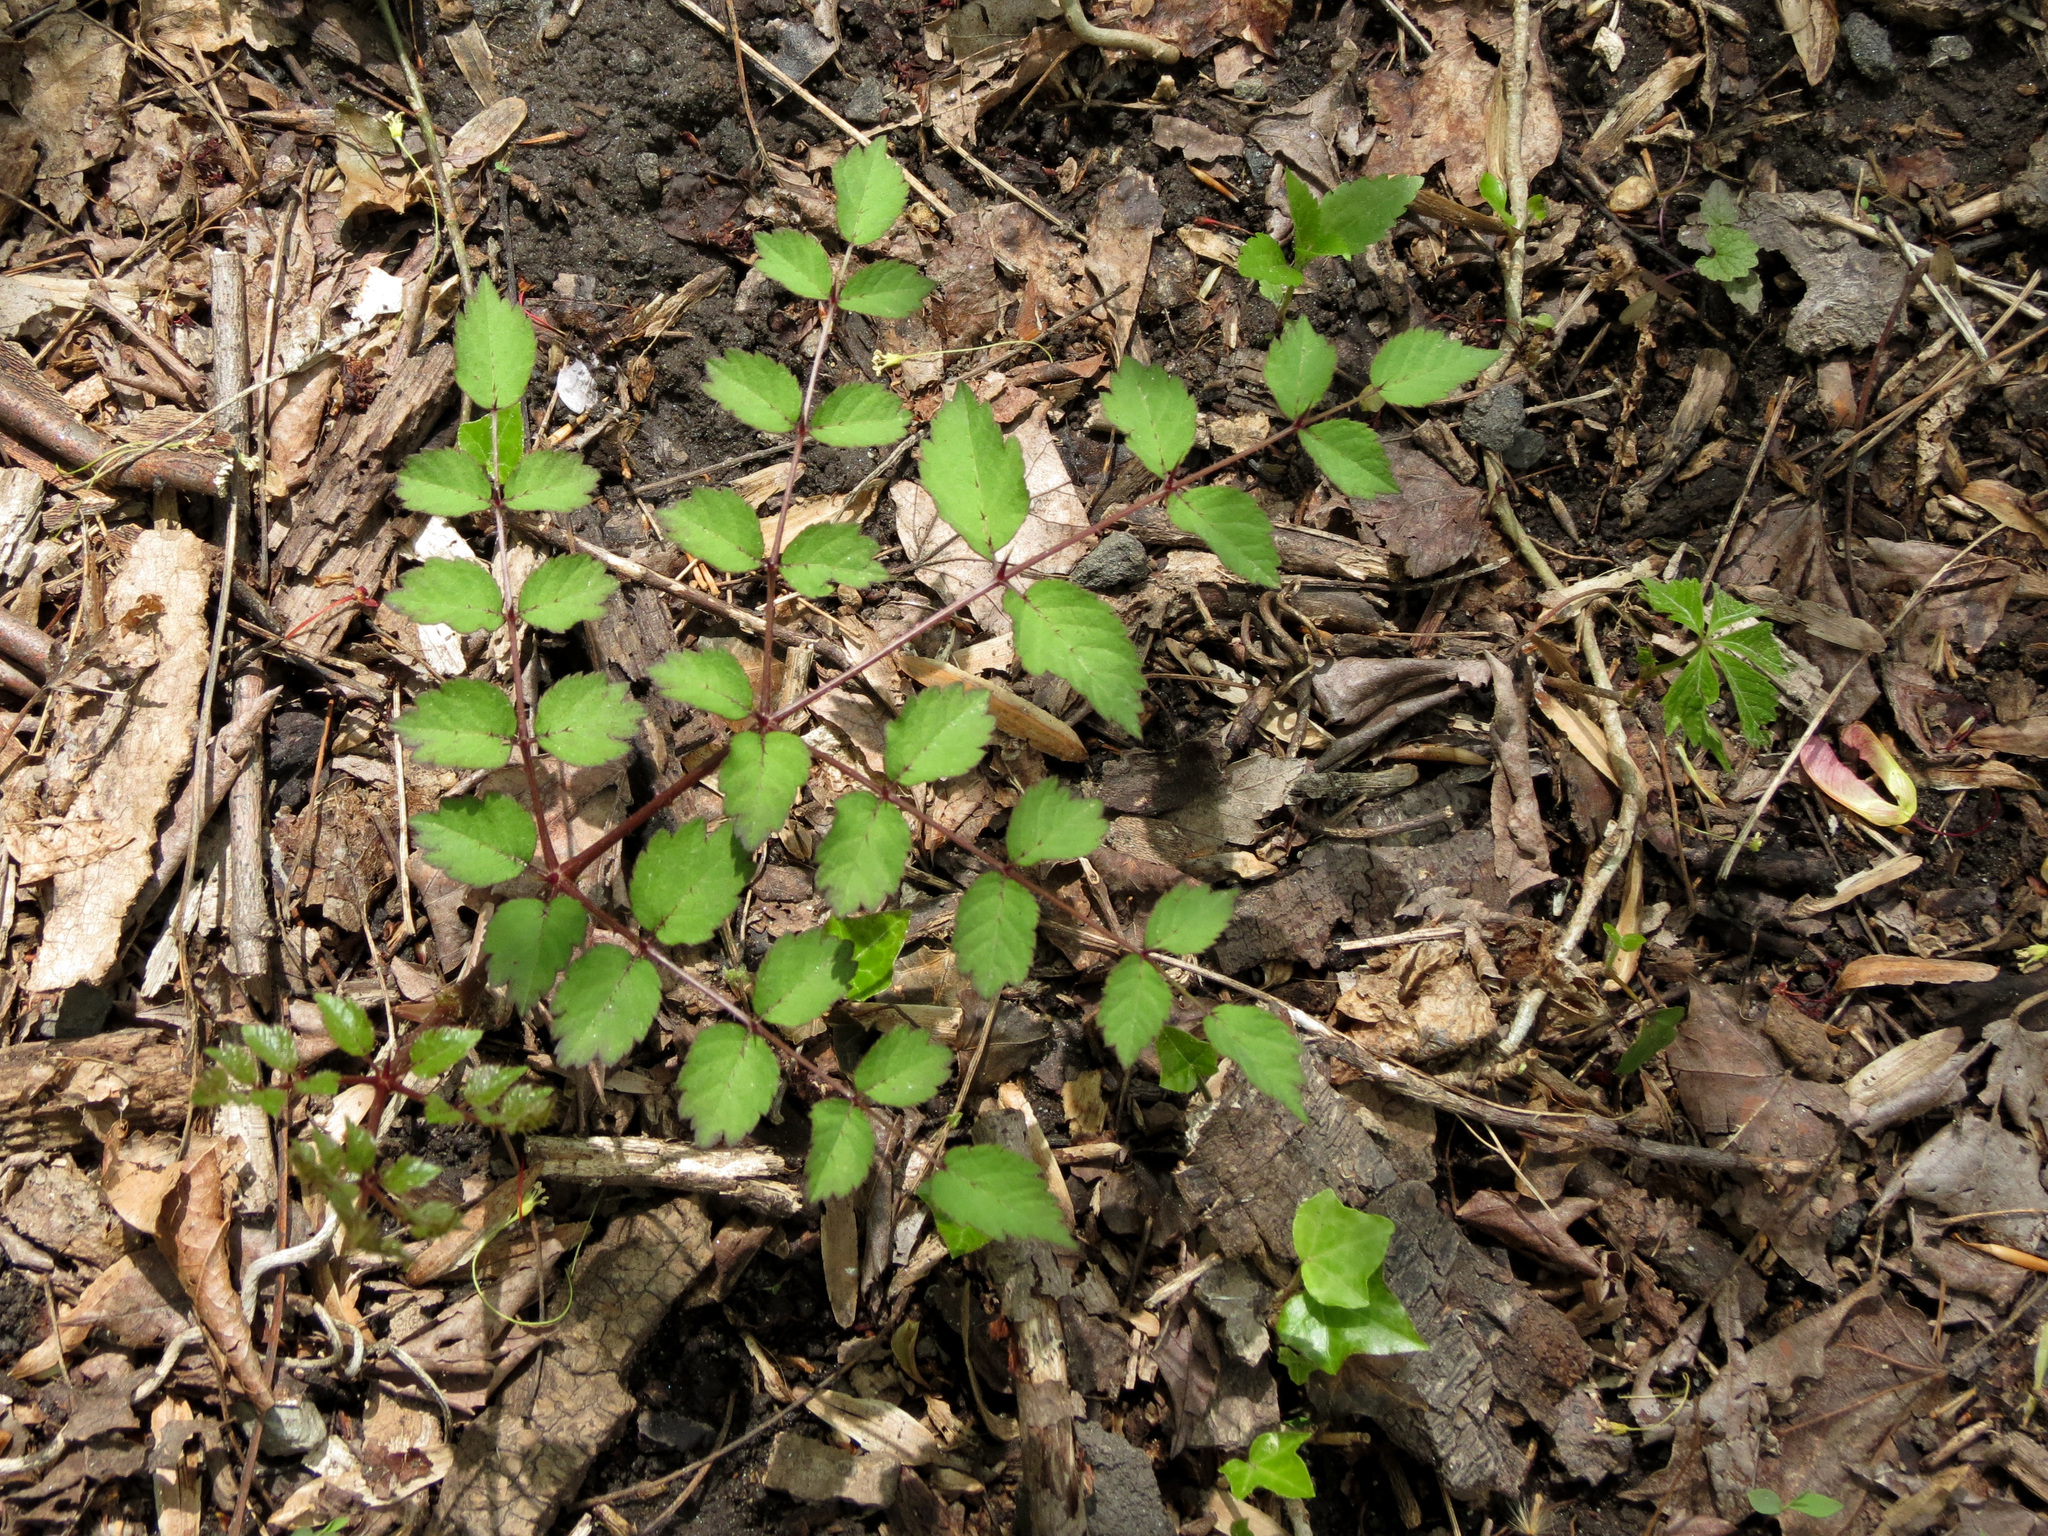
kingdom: Plantae
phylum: Tracheophyta
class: Magnoliopsida
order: Apiales
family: Araliaceae
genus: Aralia
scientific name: Aralia spinosa
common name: Hercules'-club
